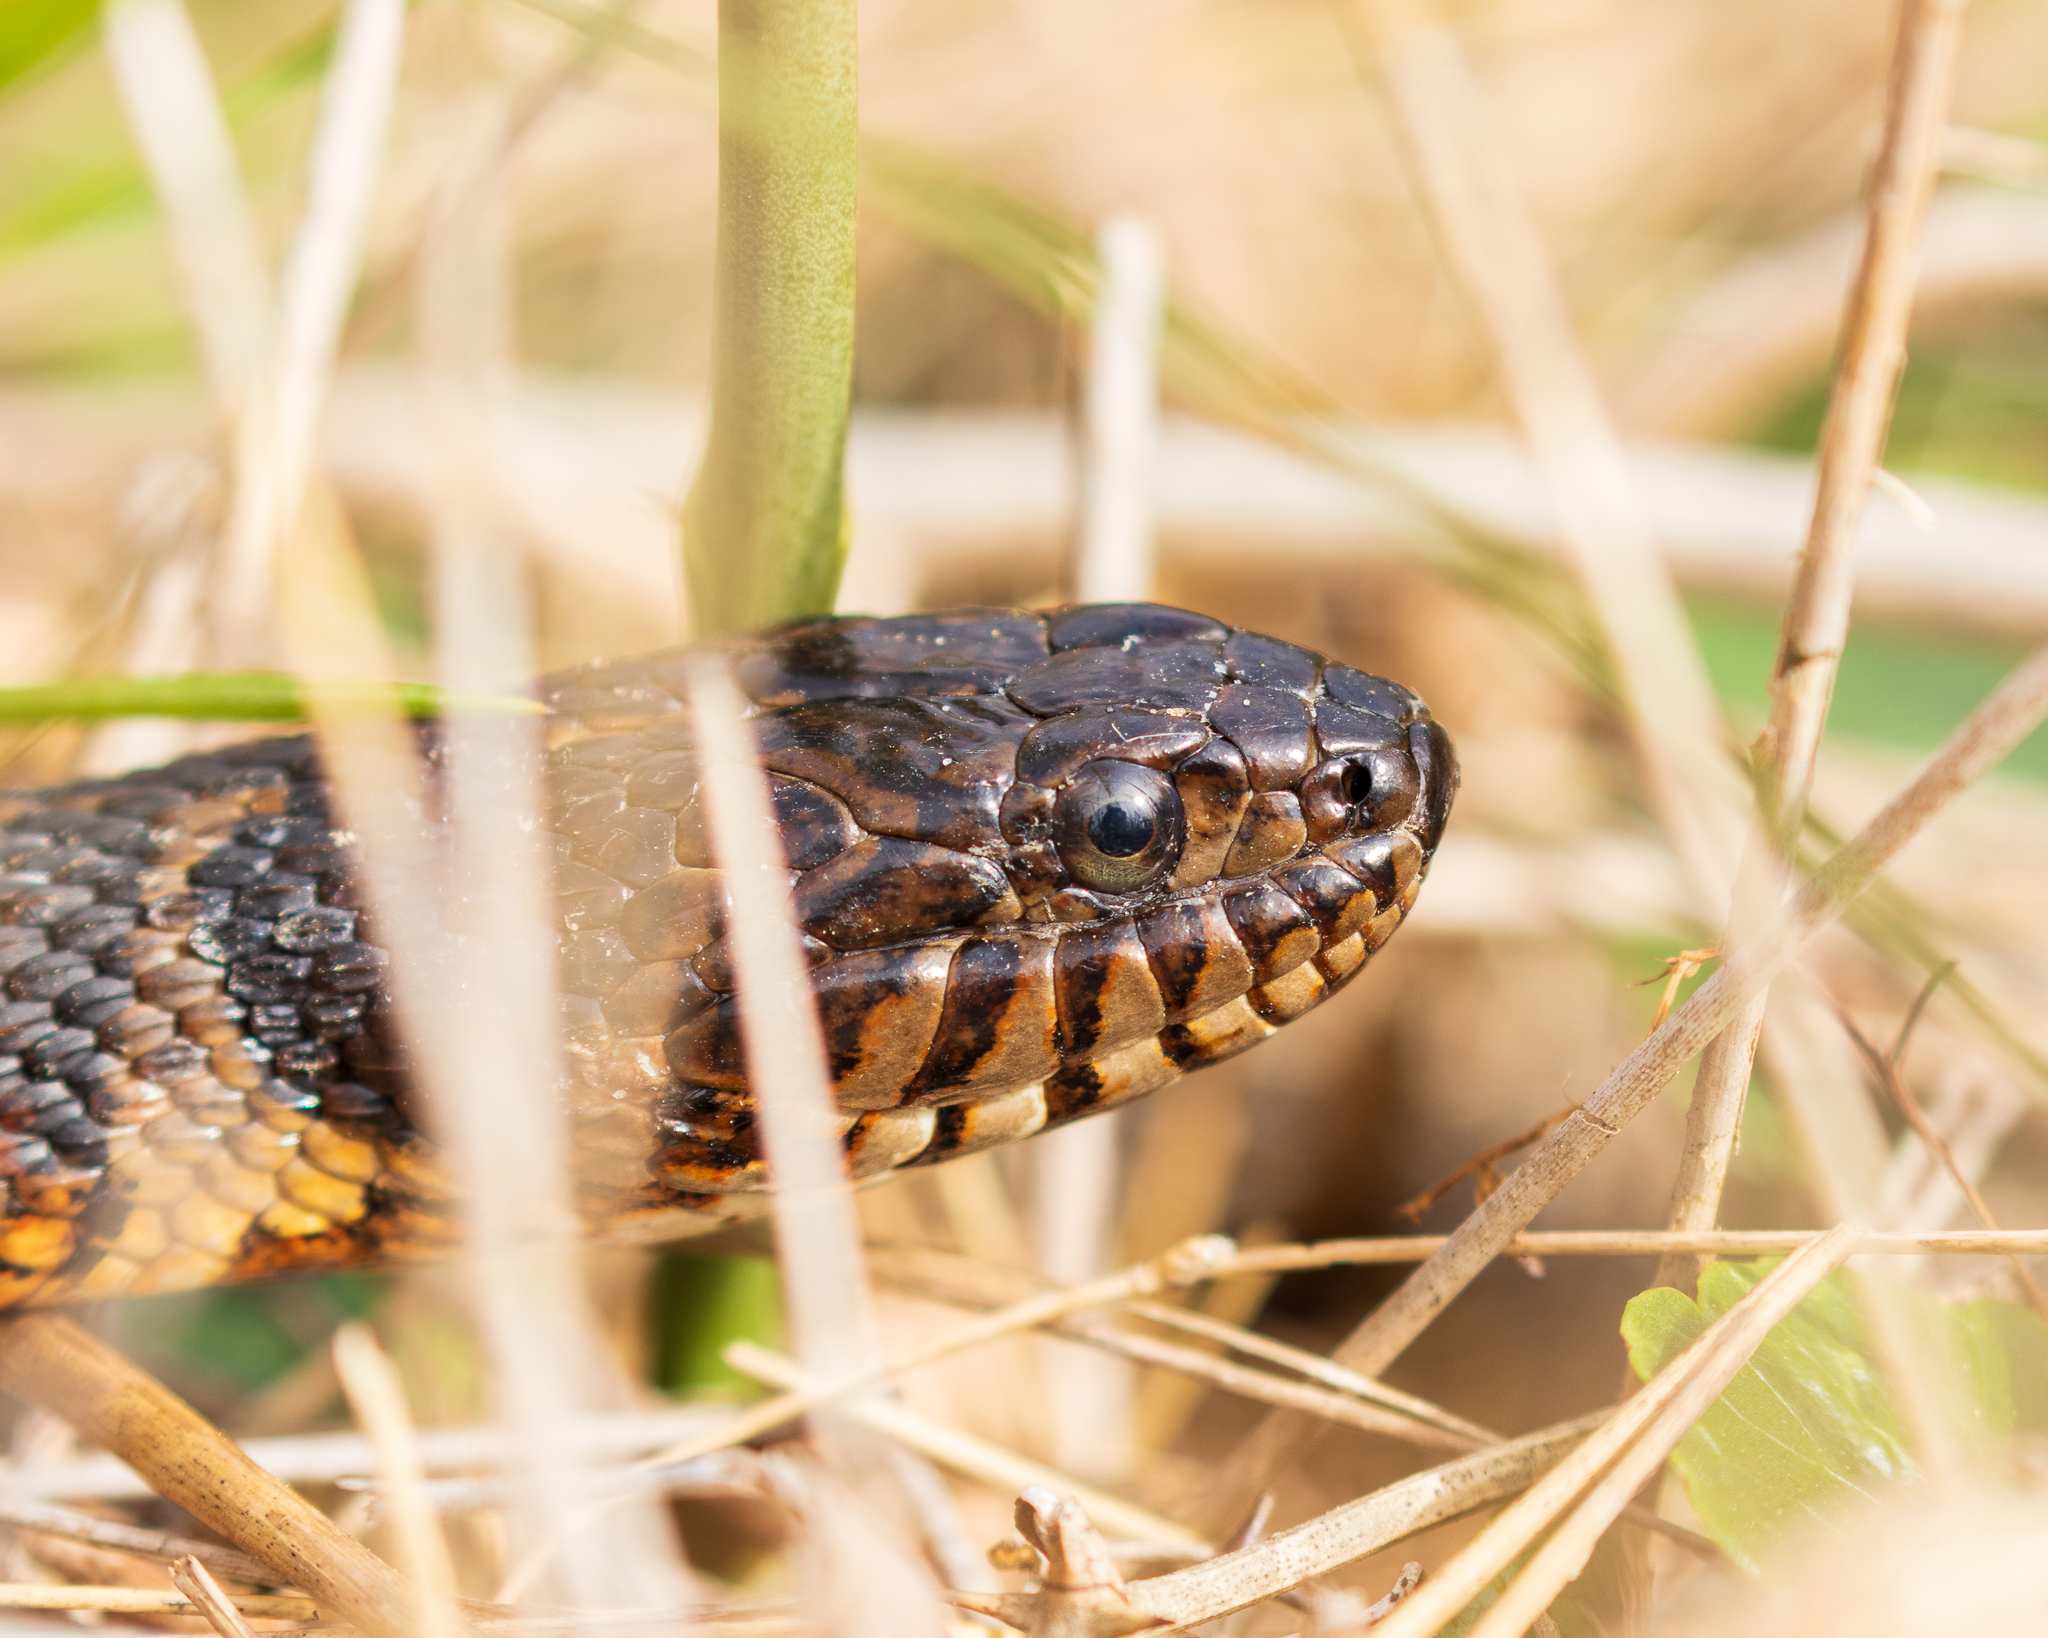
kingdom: Animalia
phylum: Chordata
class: Squamata
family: Colubridae
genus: Nerodia
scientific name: Nerodia sipedon
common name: Northern water snake
